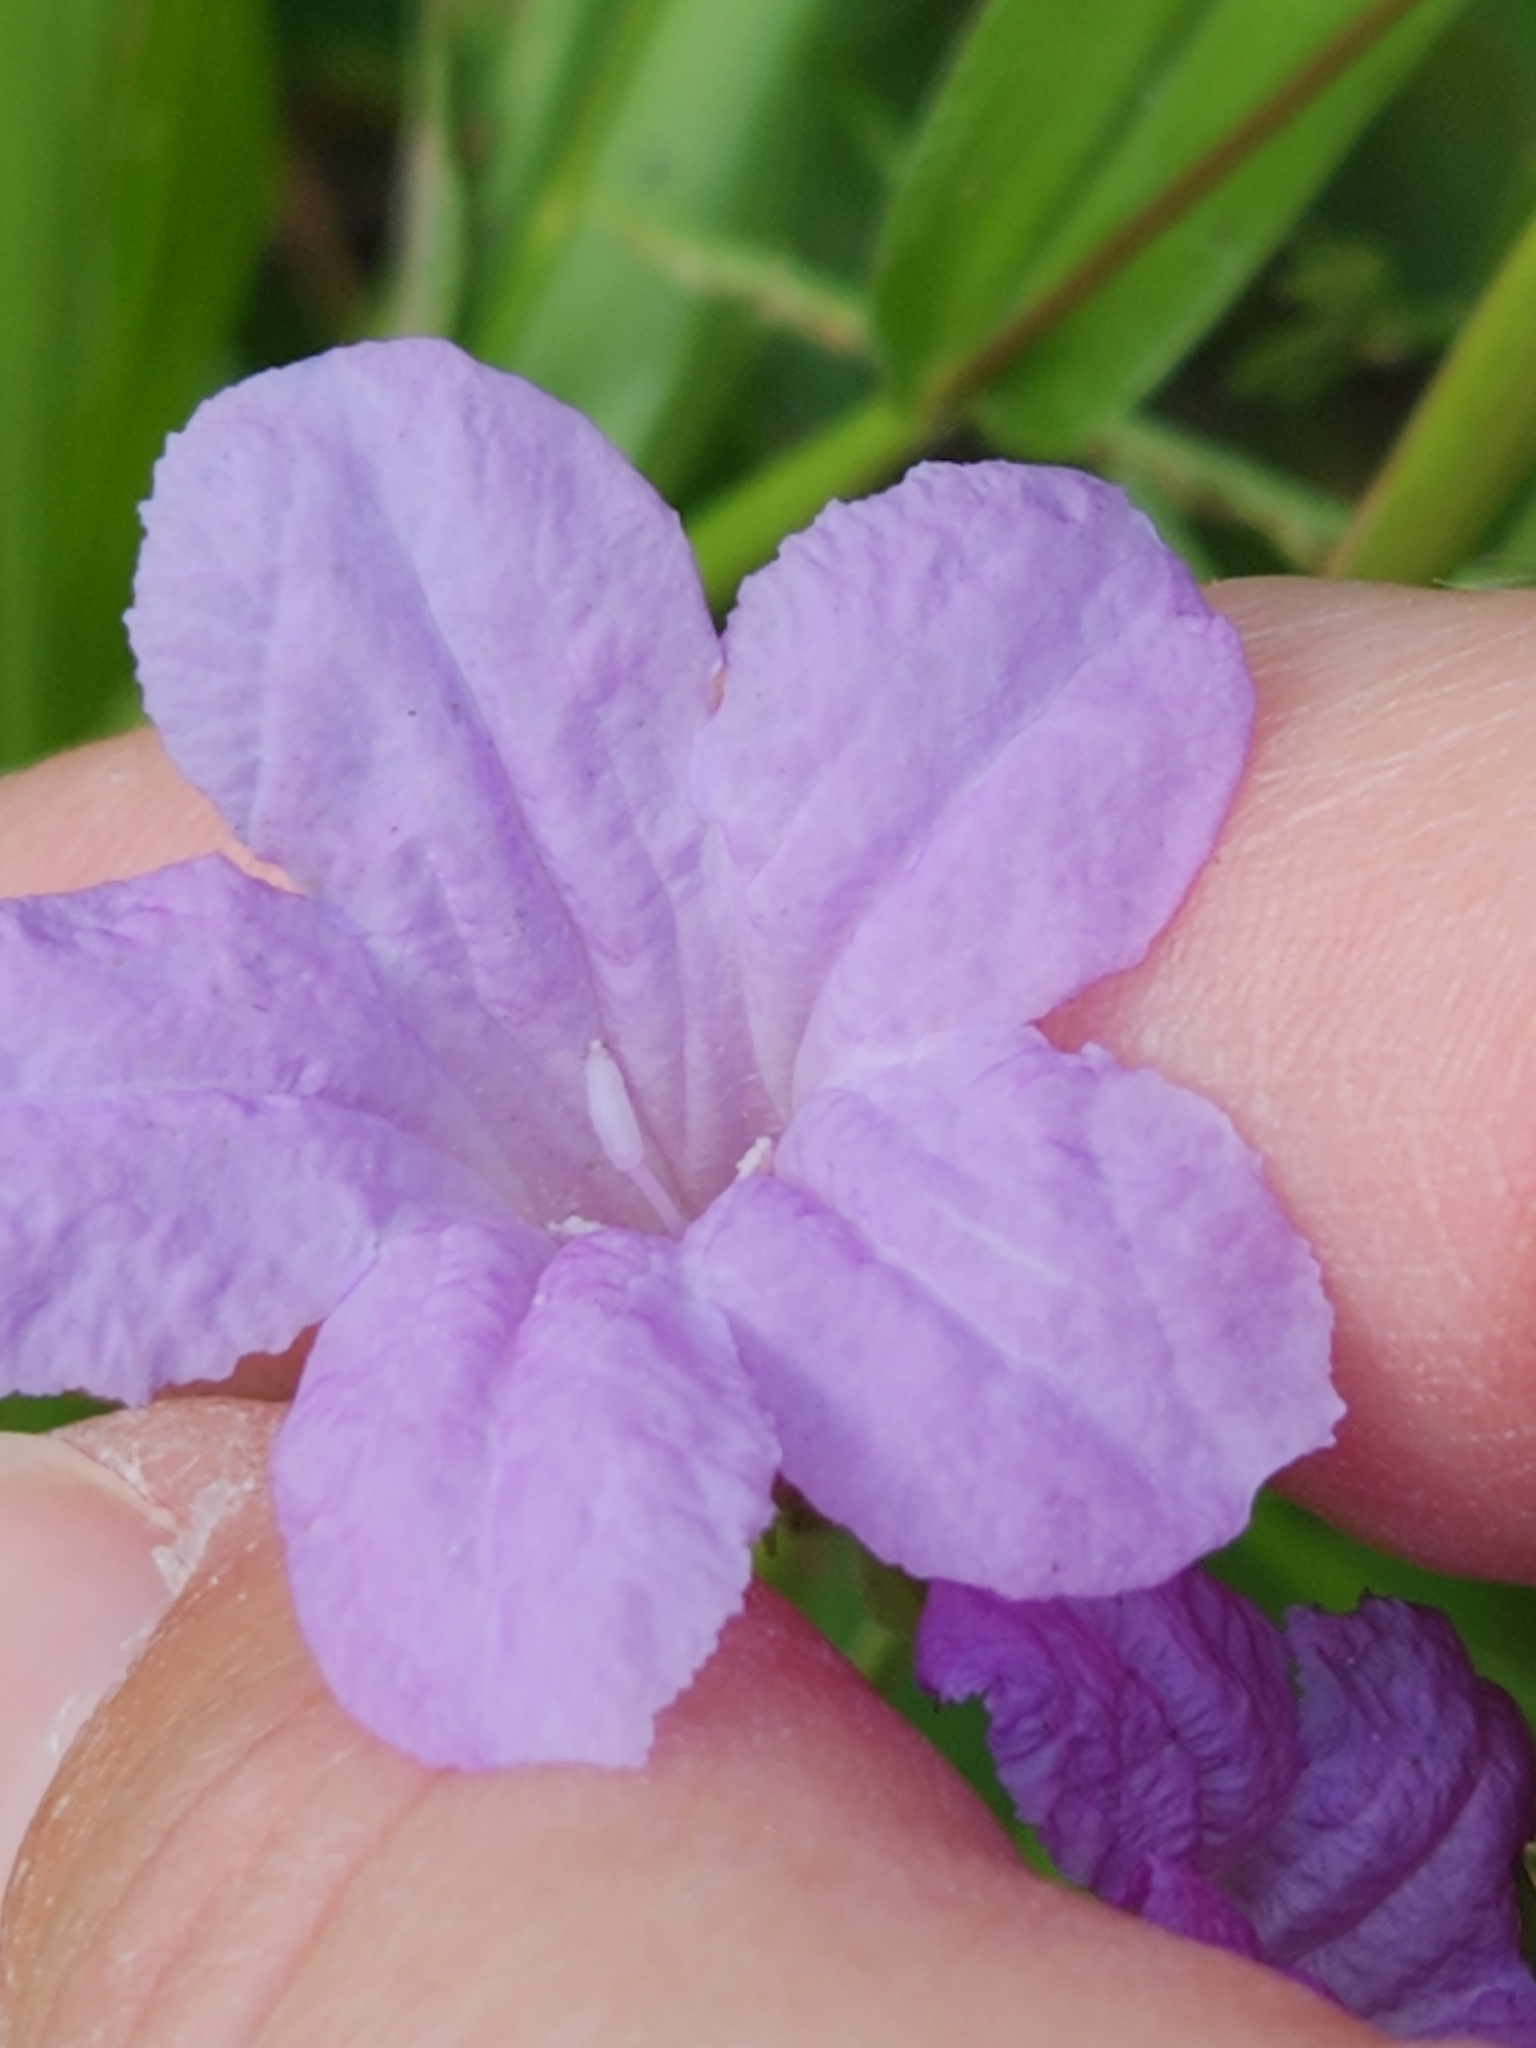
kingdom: Plantae
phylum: Tracheophyta
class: Magnoliopsida
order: Lamiales
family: Acanthaceae
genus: Ruellia
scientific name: Ruellia ciliatiflora
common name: Hairyflower wild petunia
